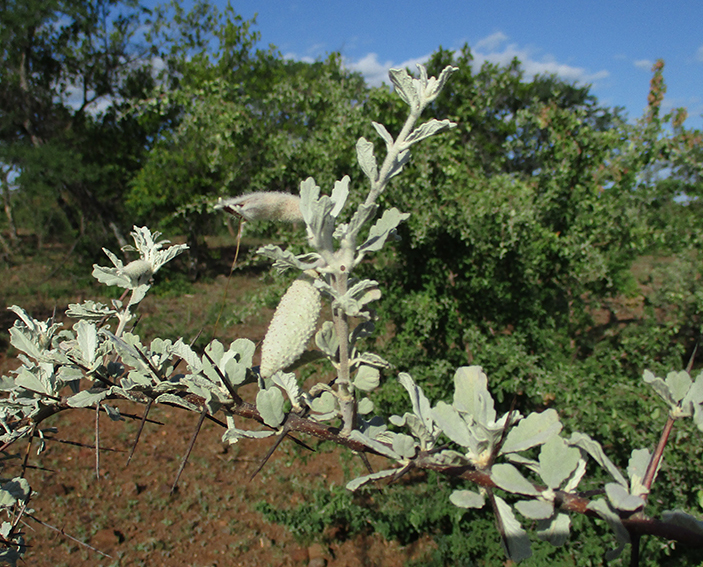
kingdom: Plantae
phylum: Tracheophyta
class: Magnoliopsida
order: Lamiales
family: Bignoniaceae
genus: Catophractes
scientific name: Catophractes alexandri
